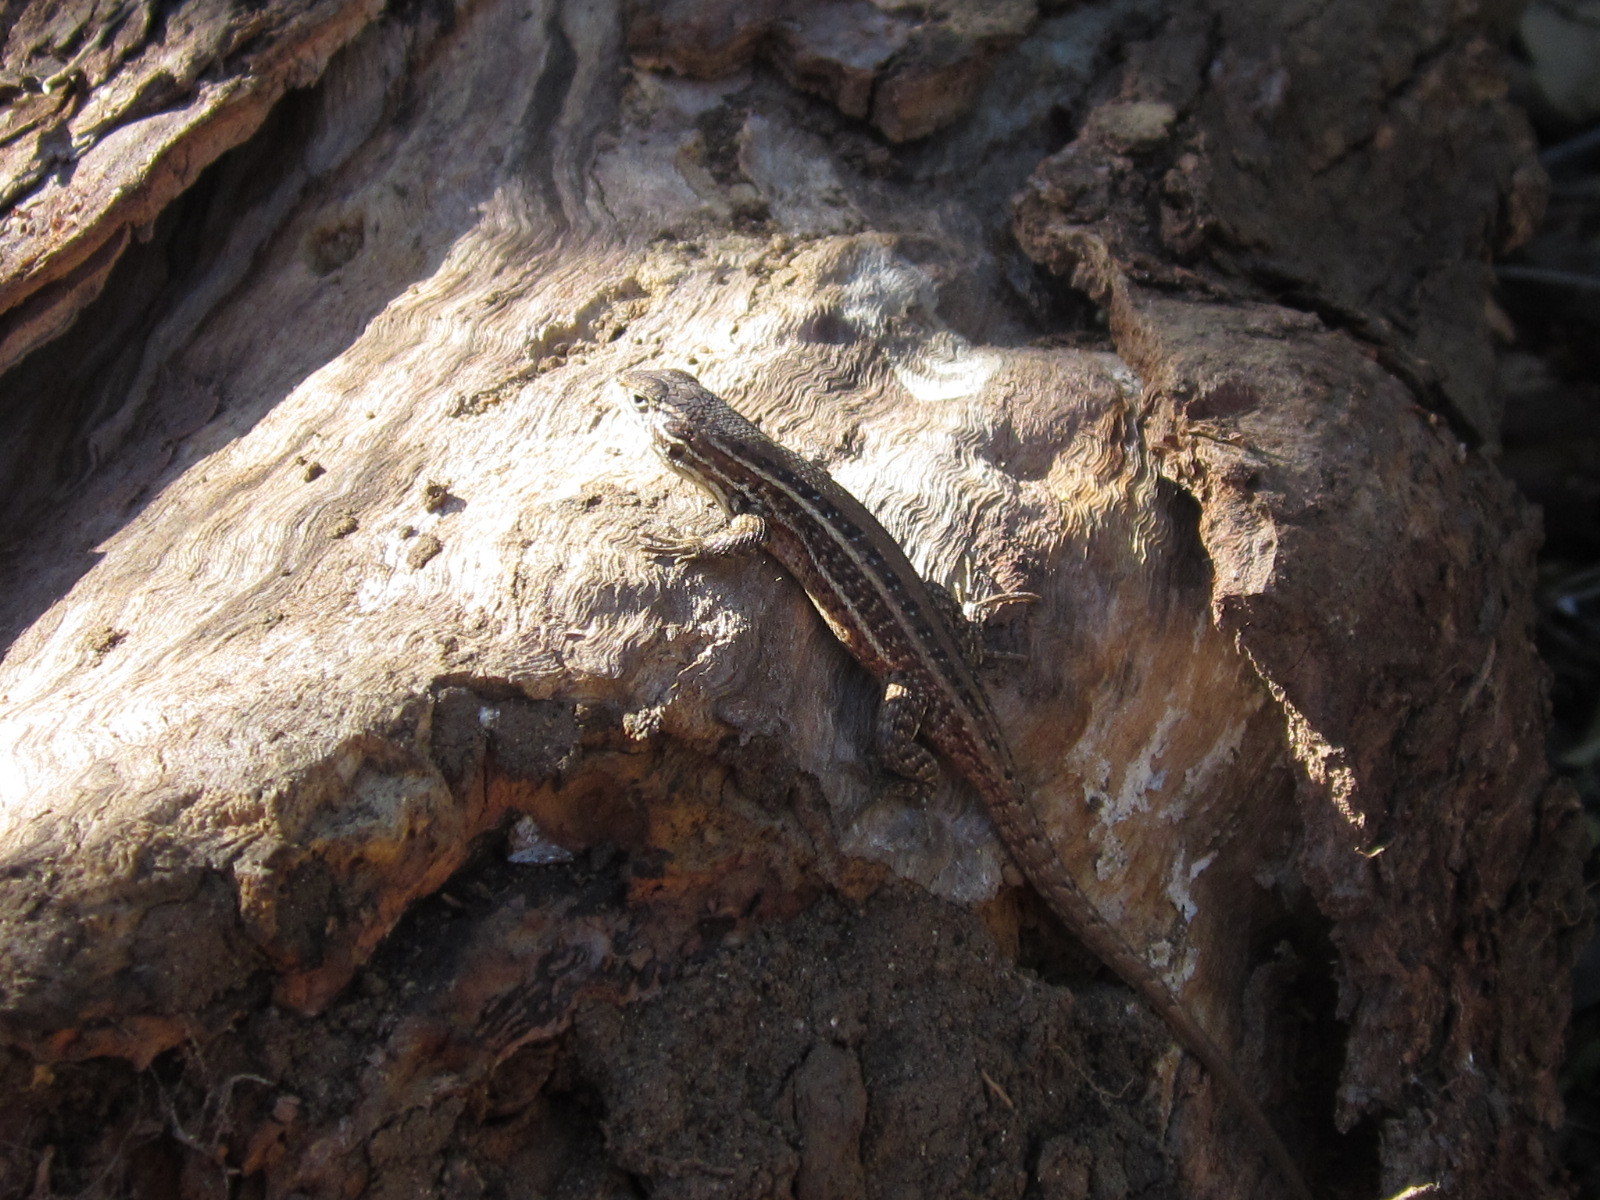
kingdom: Animalia
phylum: Chordata
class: Squamata
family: Liolaemidae
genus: Liolaemus
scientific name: Liolaemus lemniscatus
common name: Wreath tree iguana
